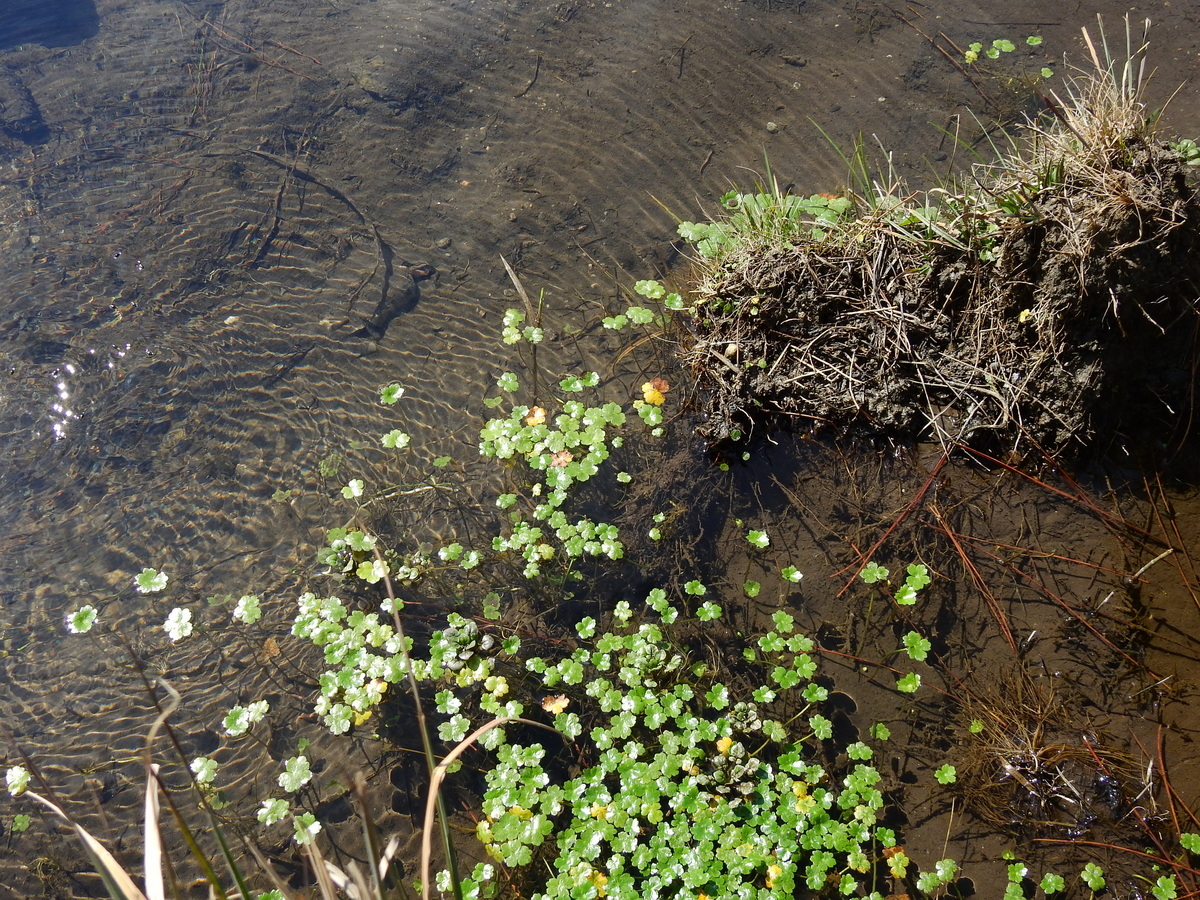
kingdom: Plantae
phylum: Tracheophyta
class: Magnoliopsida
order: Apiales
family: Araliaceae
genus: Hydrocotyle
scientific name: Hydrocotyle ranunculoides
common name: Floating pennywort
